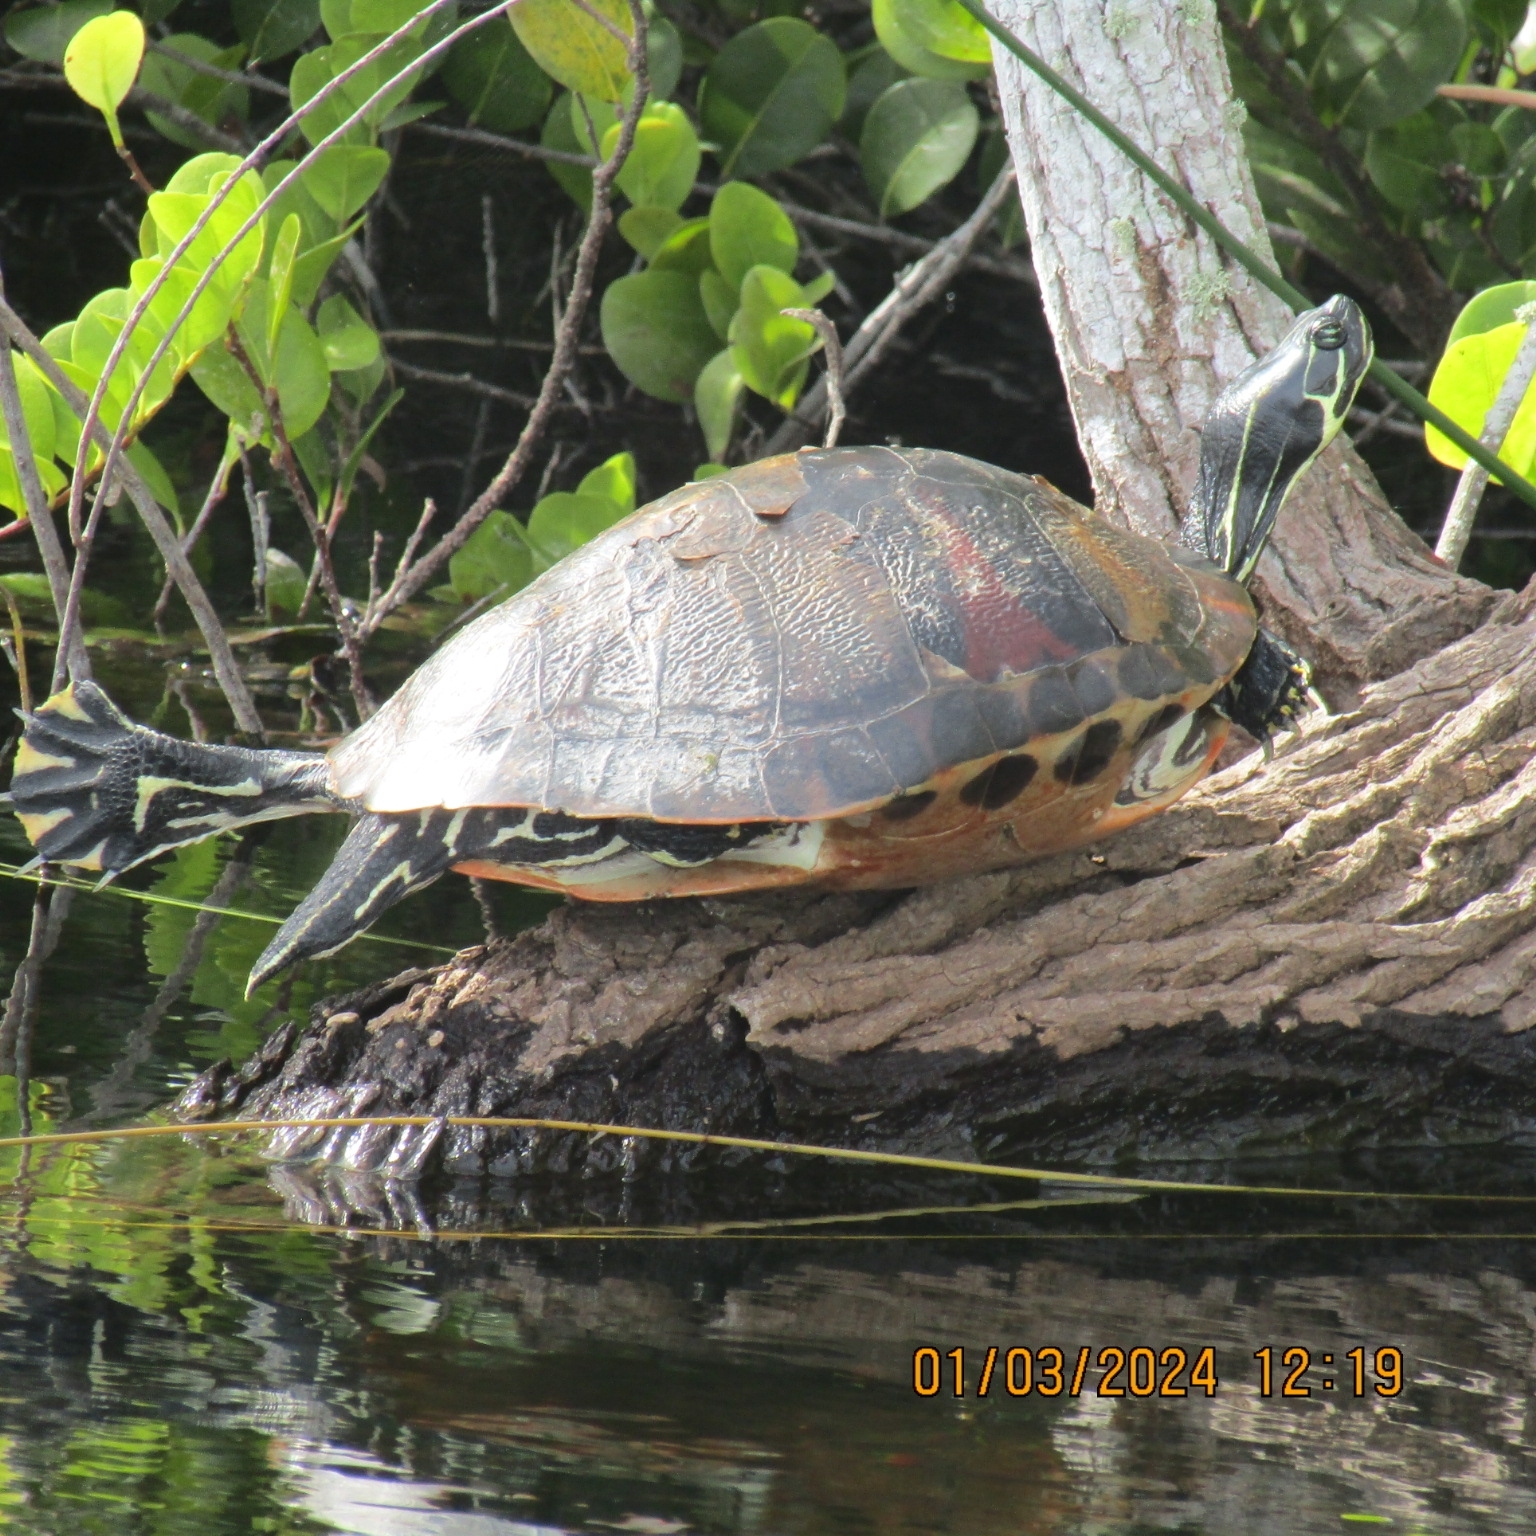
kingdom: Animalia
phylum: Chordata
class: Testudines
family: Emydidae
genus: Pseudemys
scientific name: Pseudemys nelsoni
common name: Florida red-bellied turtle
